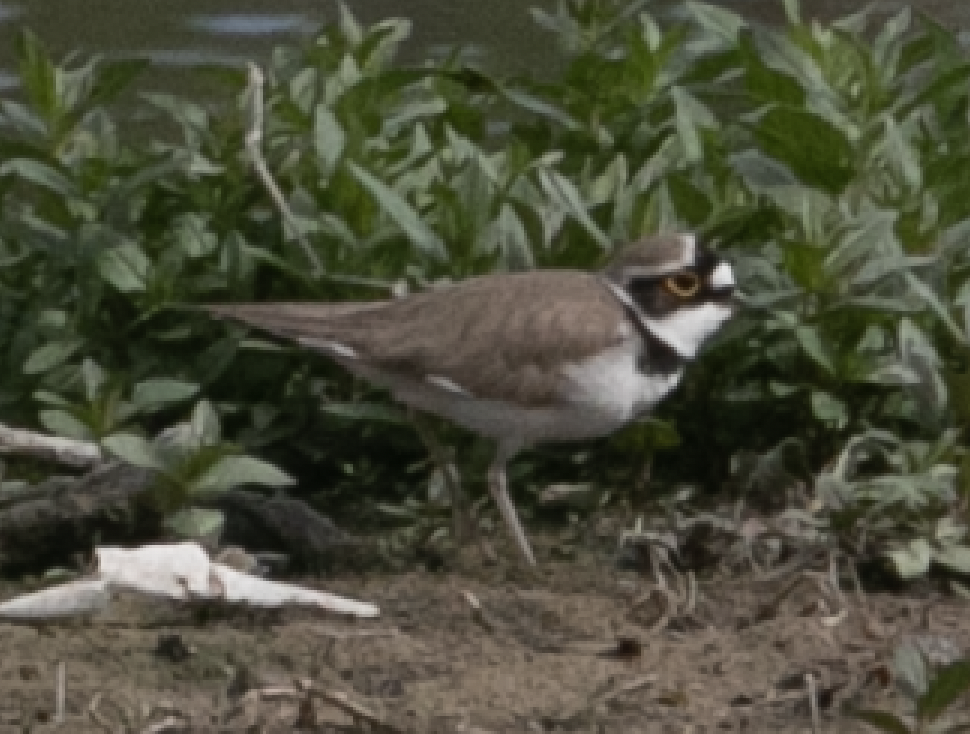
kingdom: Animalia
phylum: Chordata
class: Aves
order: Charadriiformes
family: Charadriidae
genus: Charadrius
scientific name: Charadrius dubius
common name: Little ringed plover
